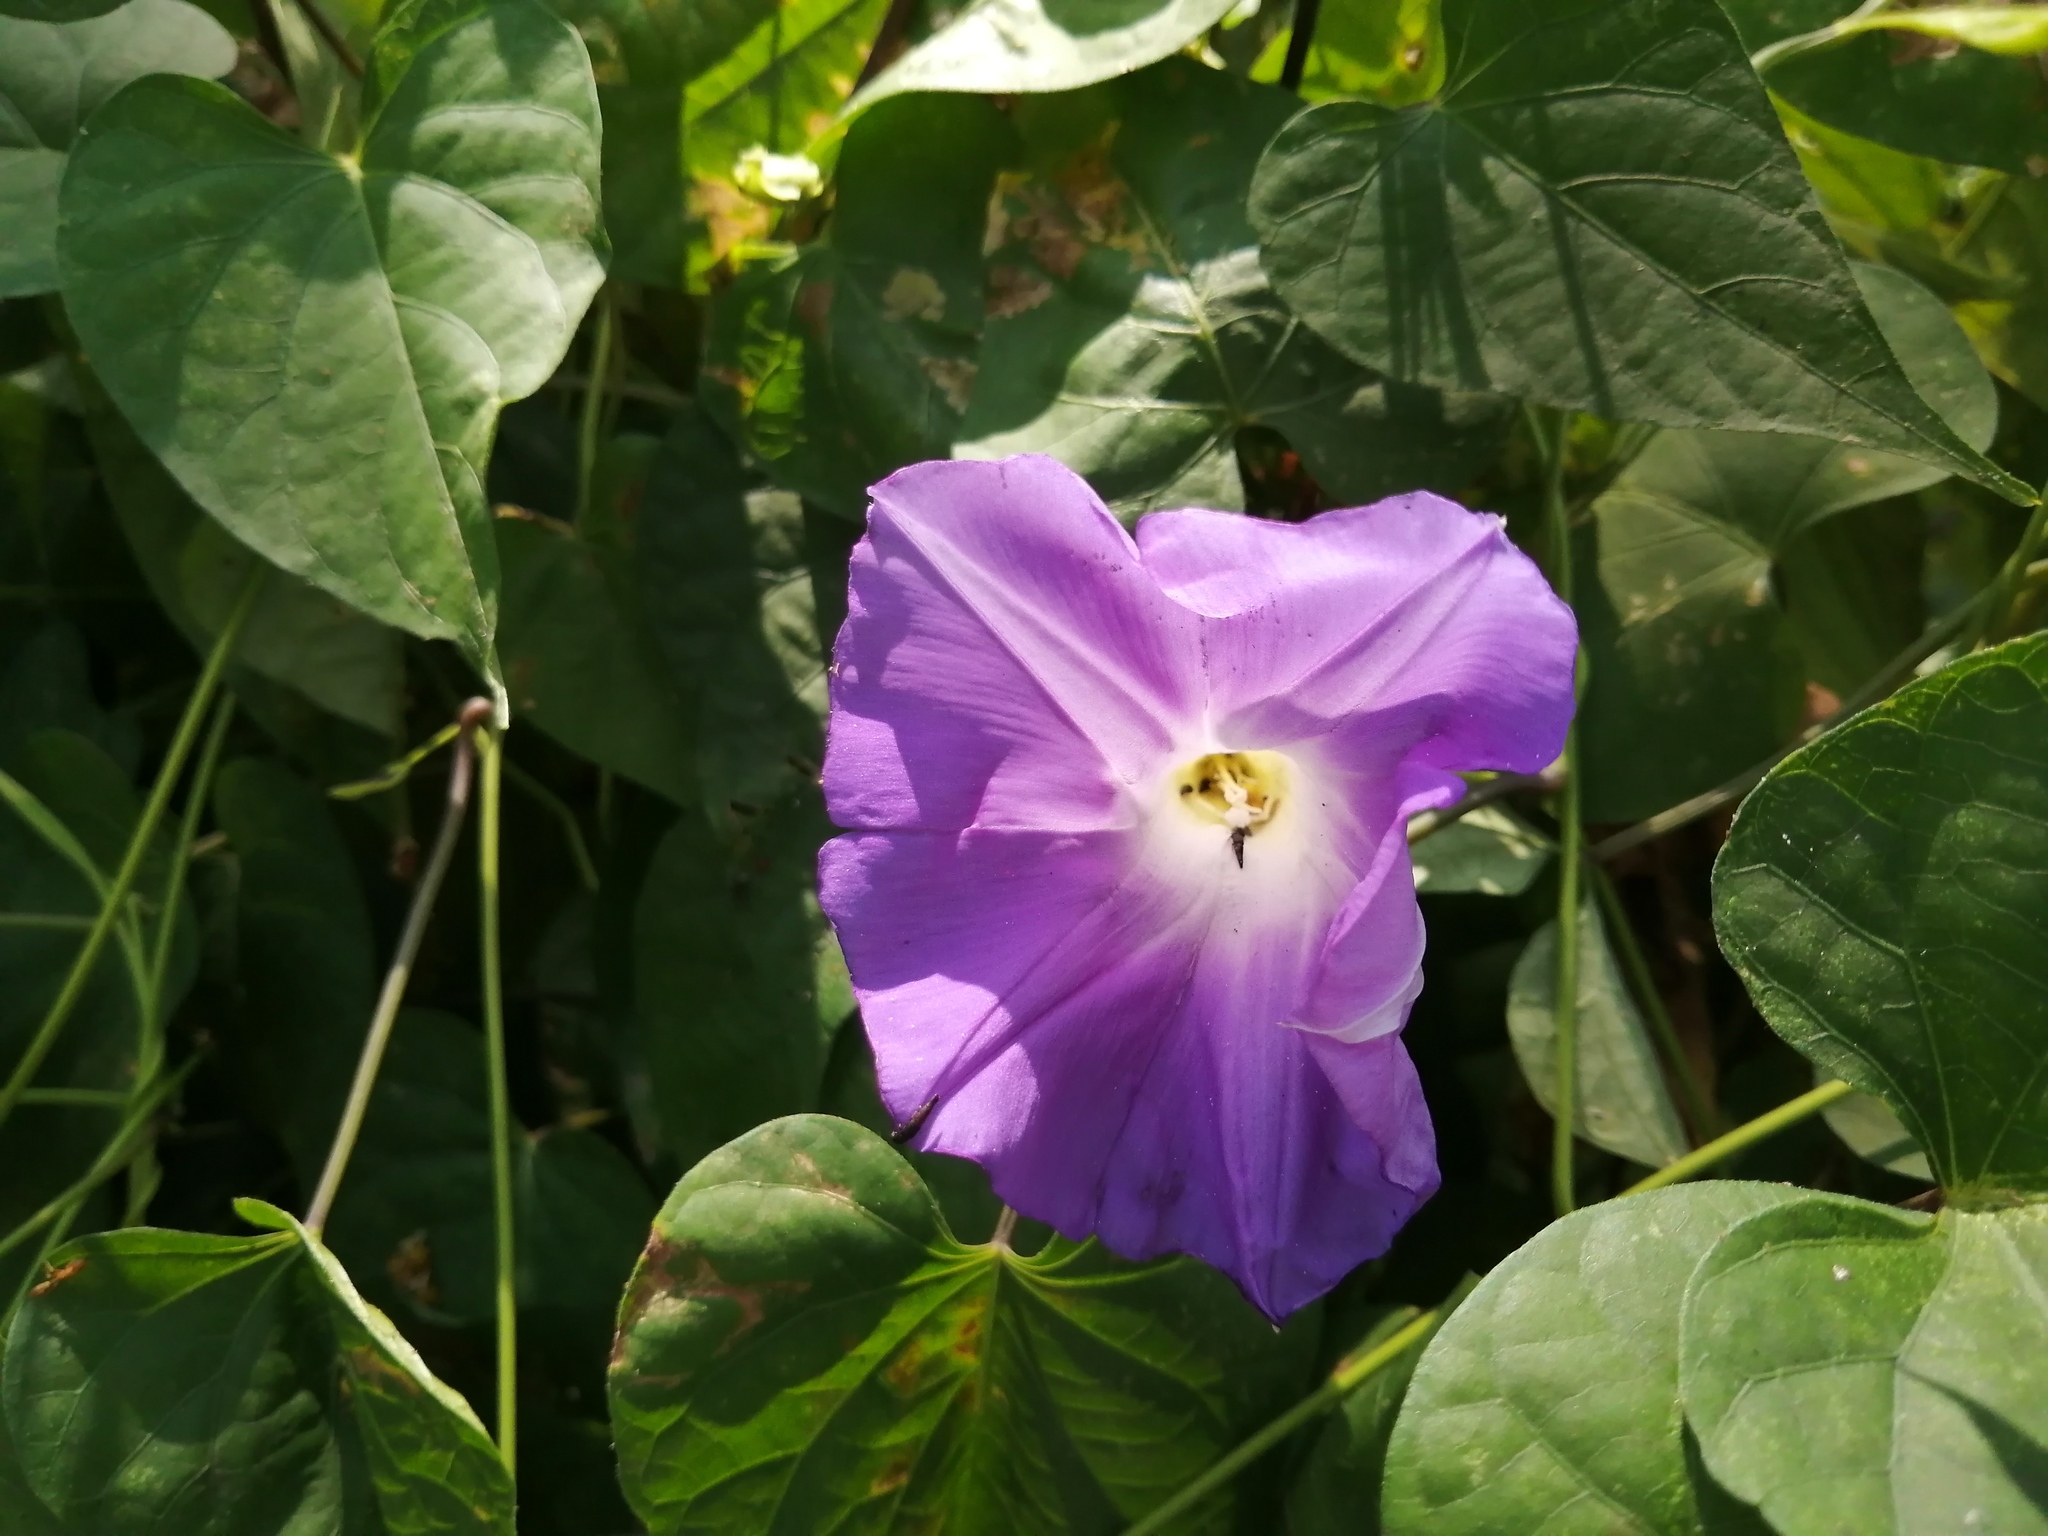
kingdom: Plantae
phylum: Tracheophyta
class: Magnoliopsida
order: Solanales
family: Convolvulaceae
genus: Ipomoea
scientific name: Ipomoea mitchelliae
